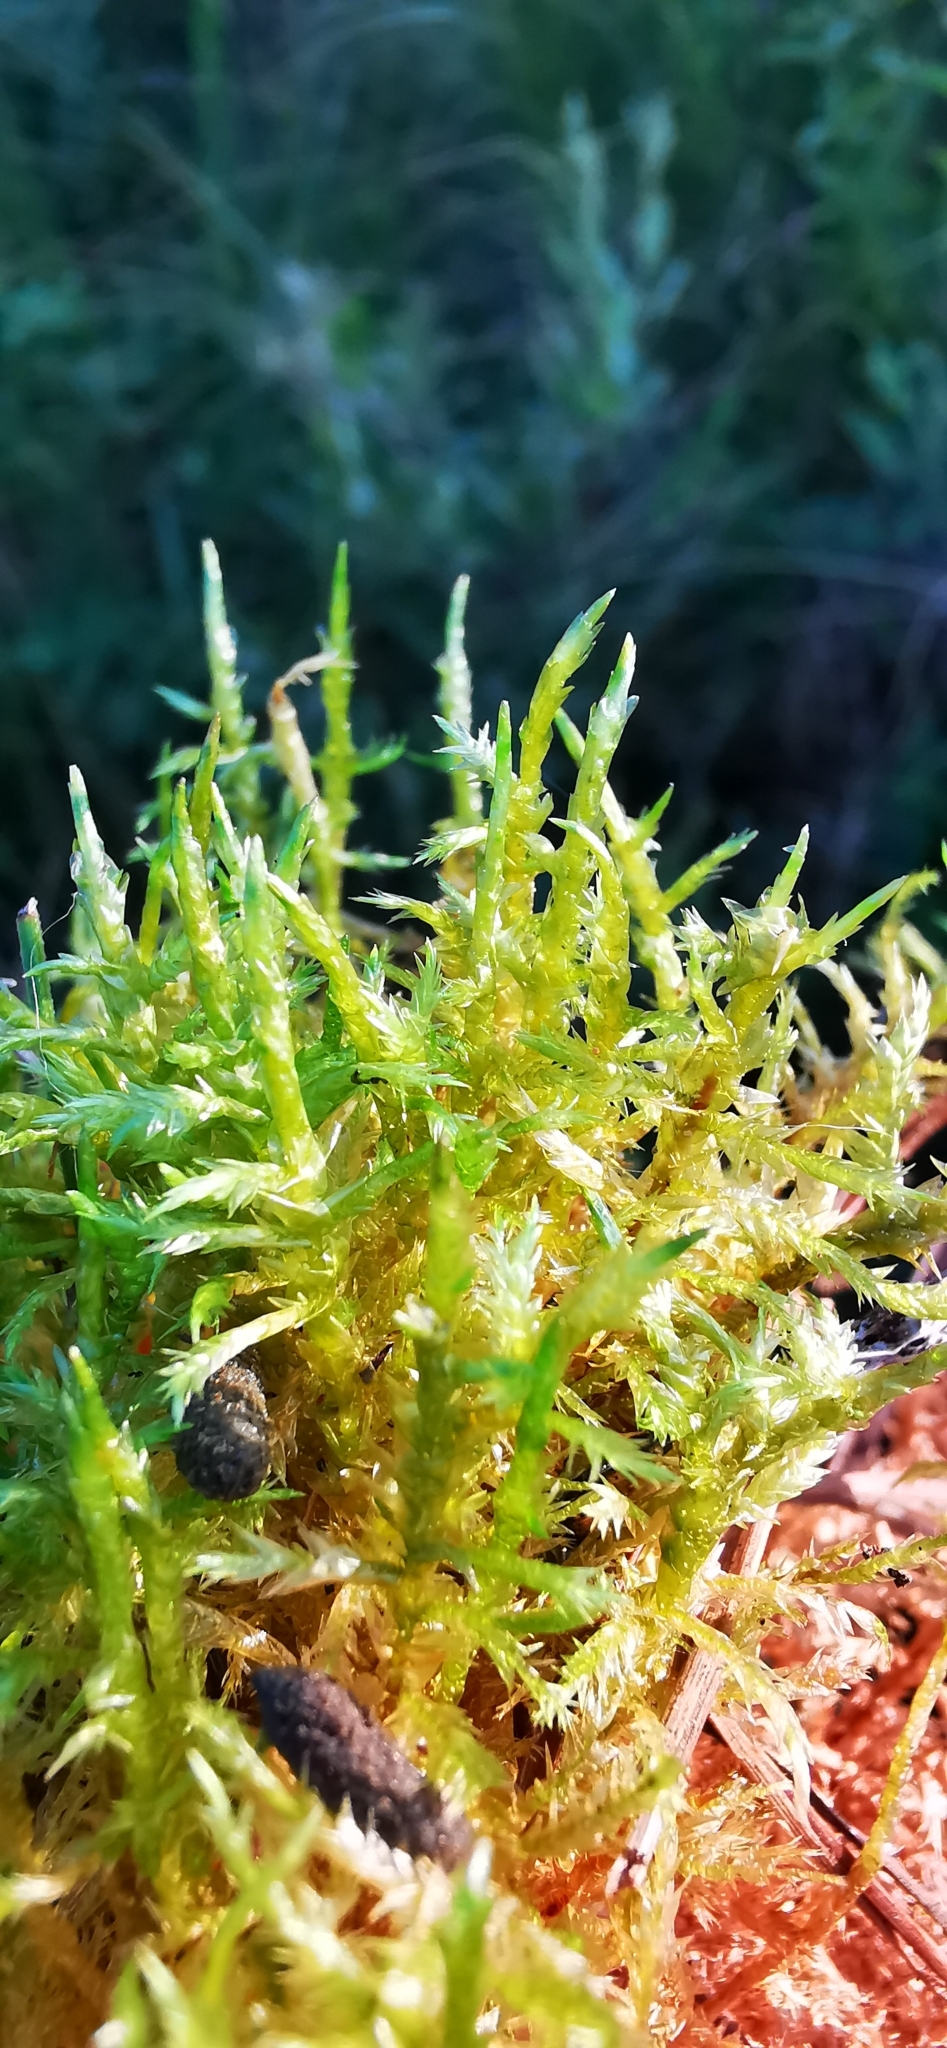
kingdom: Plantae
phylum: Bryophyta
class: Bryopsida
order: Hypnales
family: Pylaisiaceae
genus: Calliergonella
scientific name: Calliergonella cuspidata
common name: Common large wetland moss
